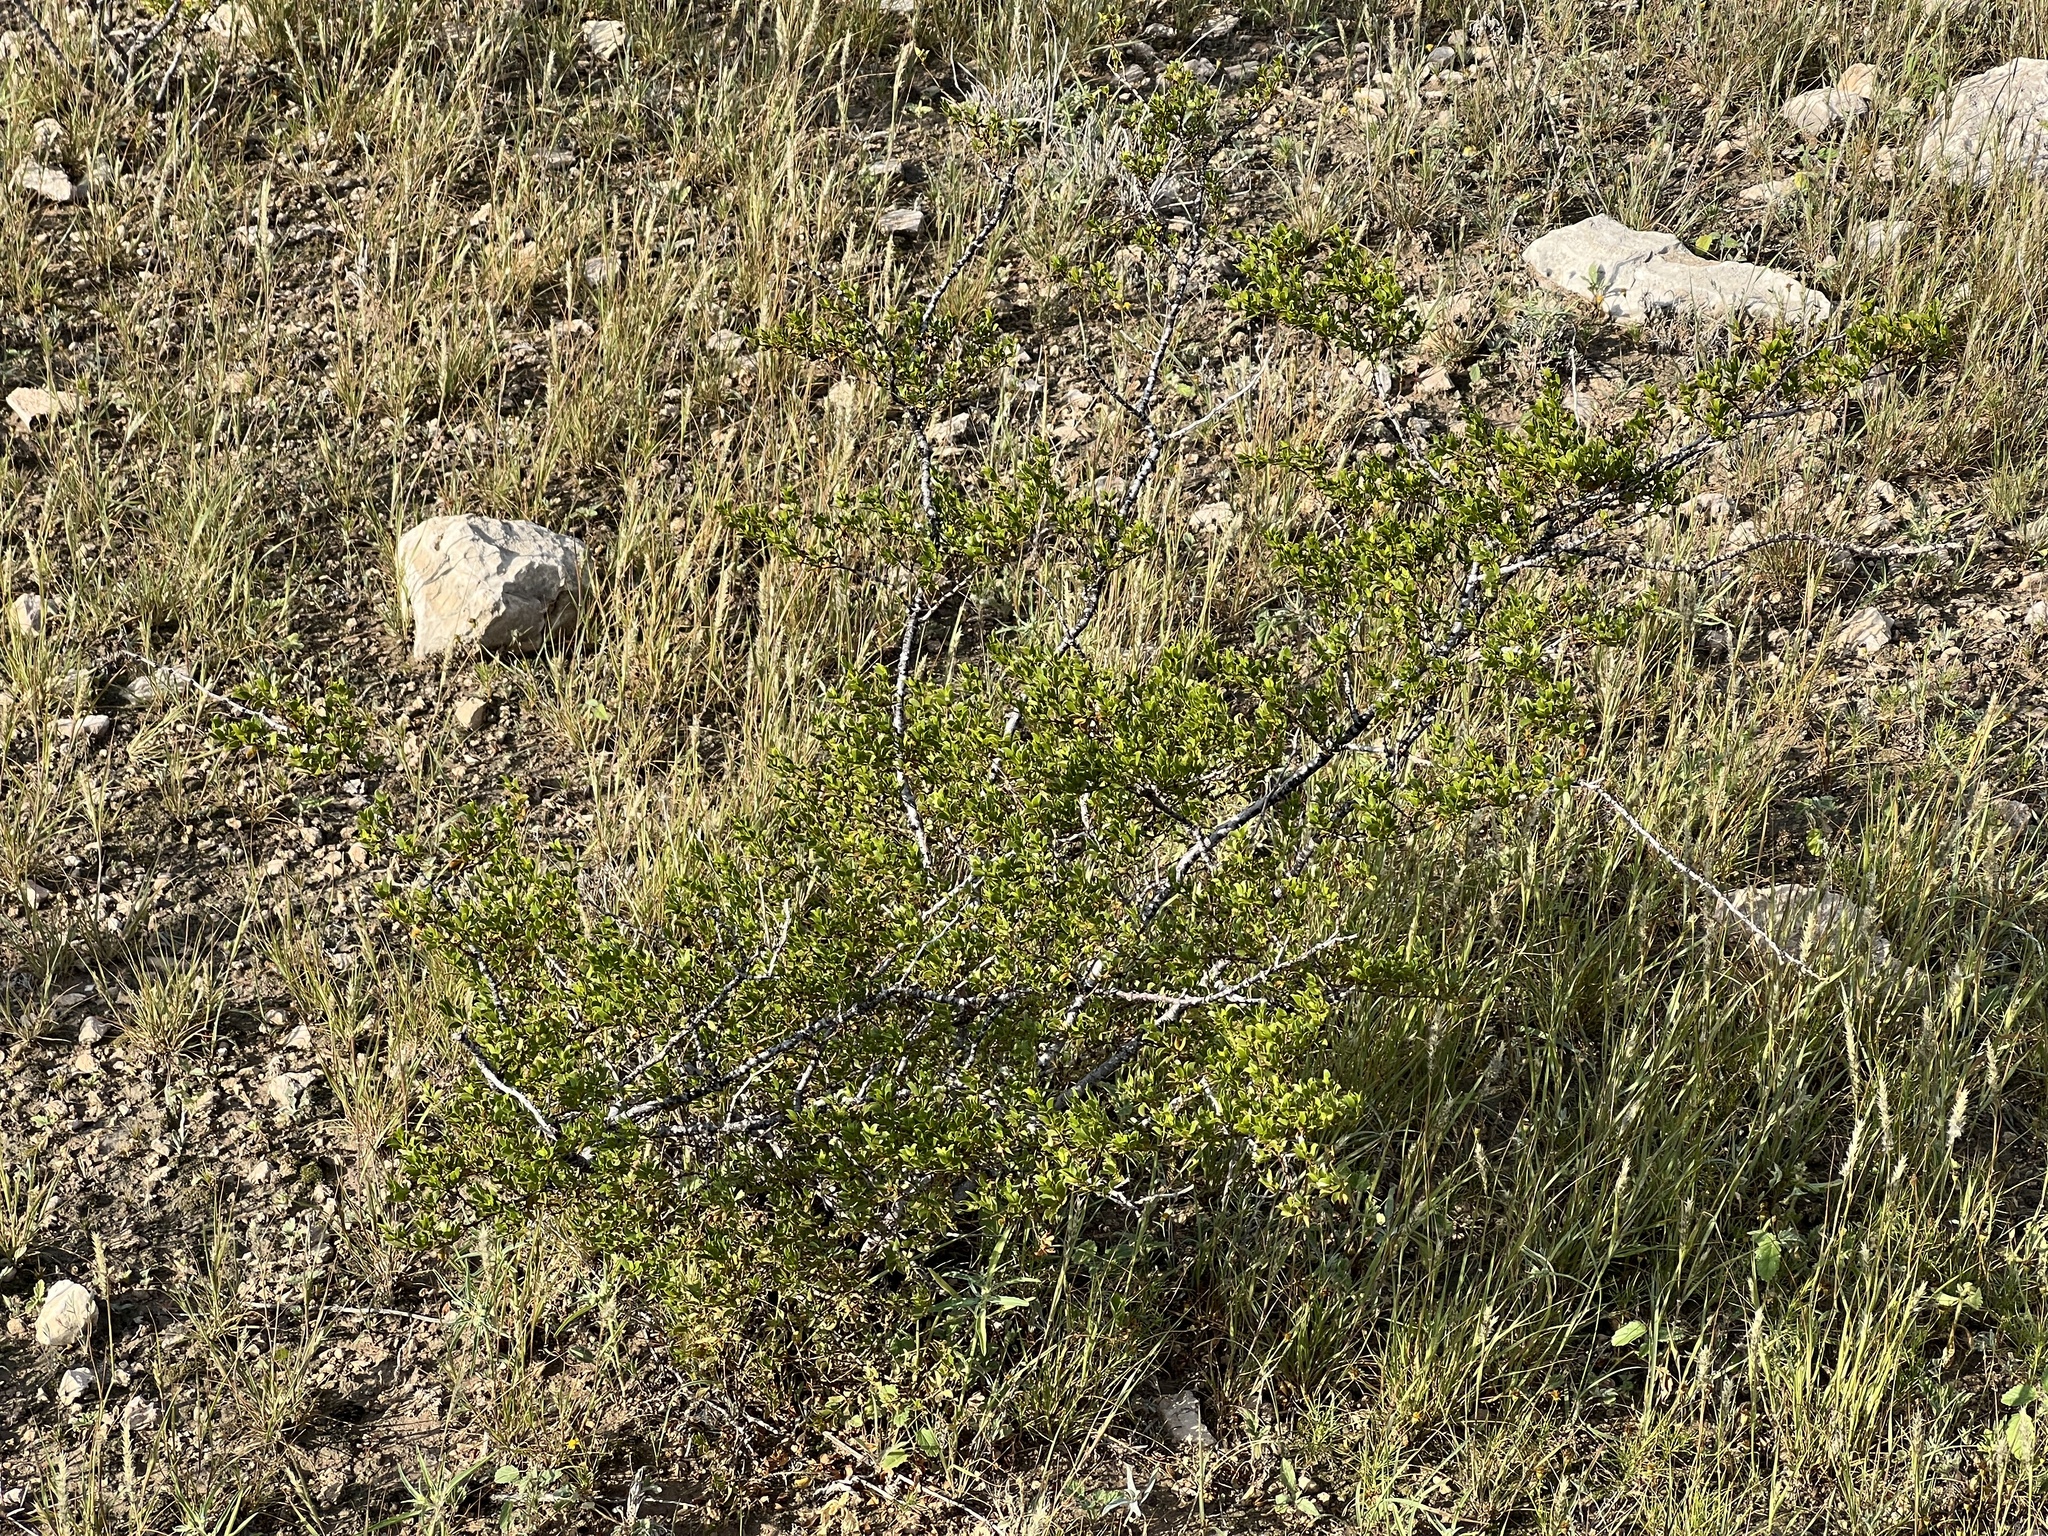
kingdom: Plantae
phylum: Tracheophyta
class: Magnoliopsida
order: Zygophyllales
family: Zygophyllaceae
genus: Larrea
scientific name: Larrea tridentata
